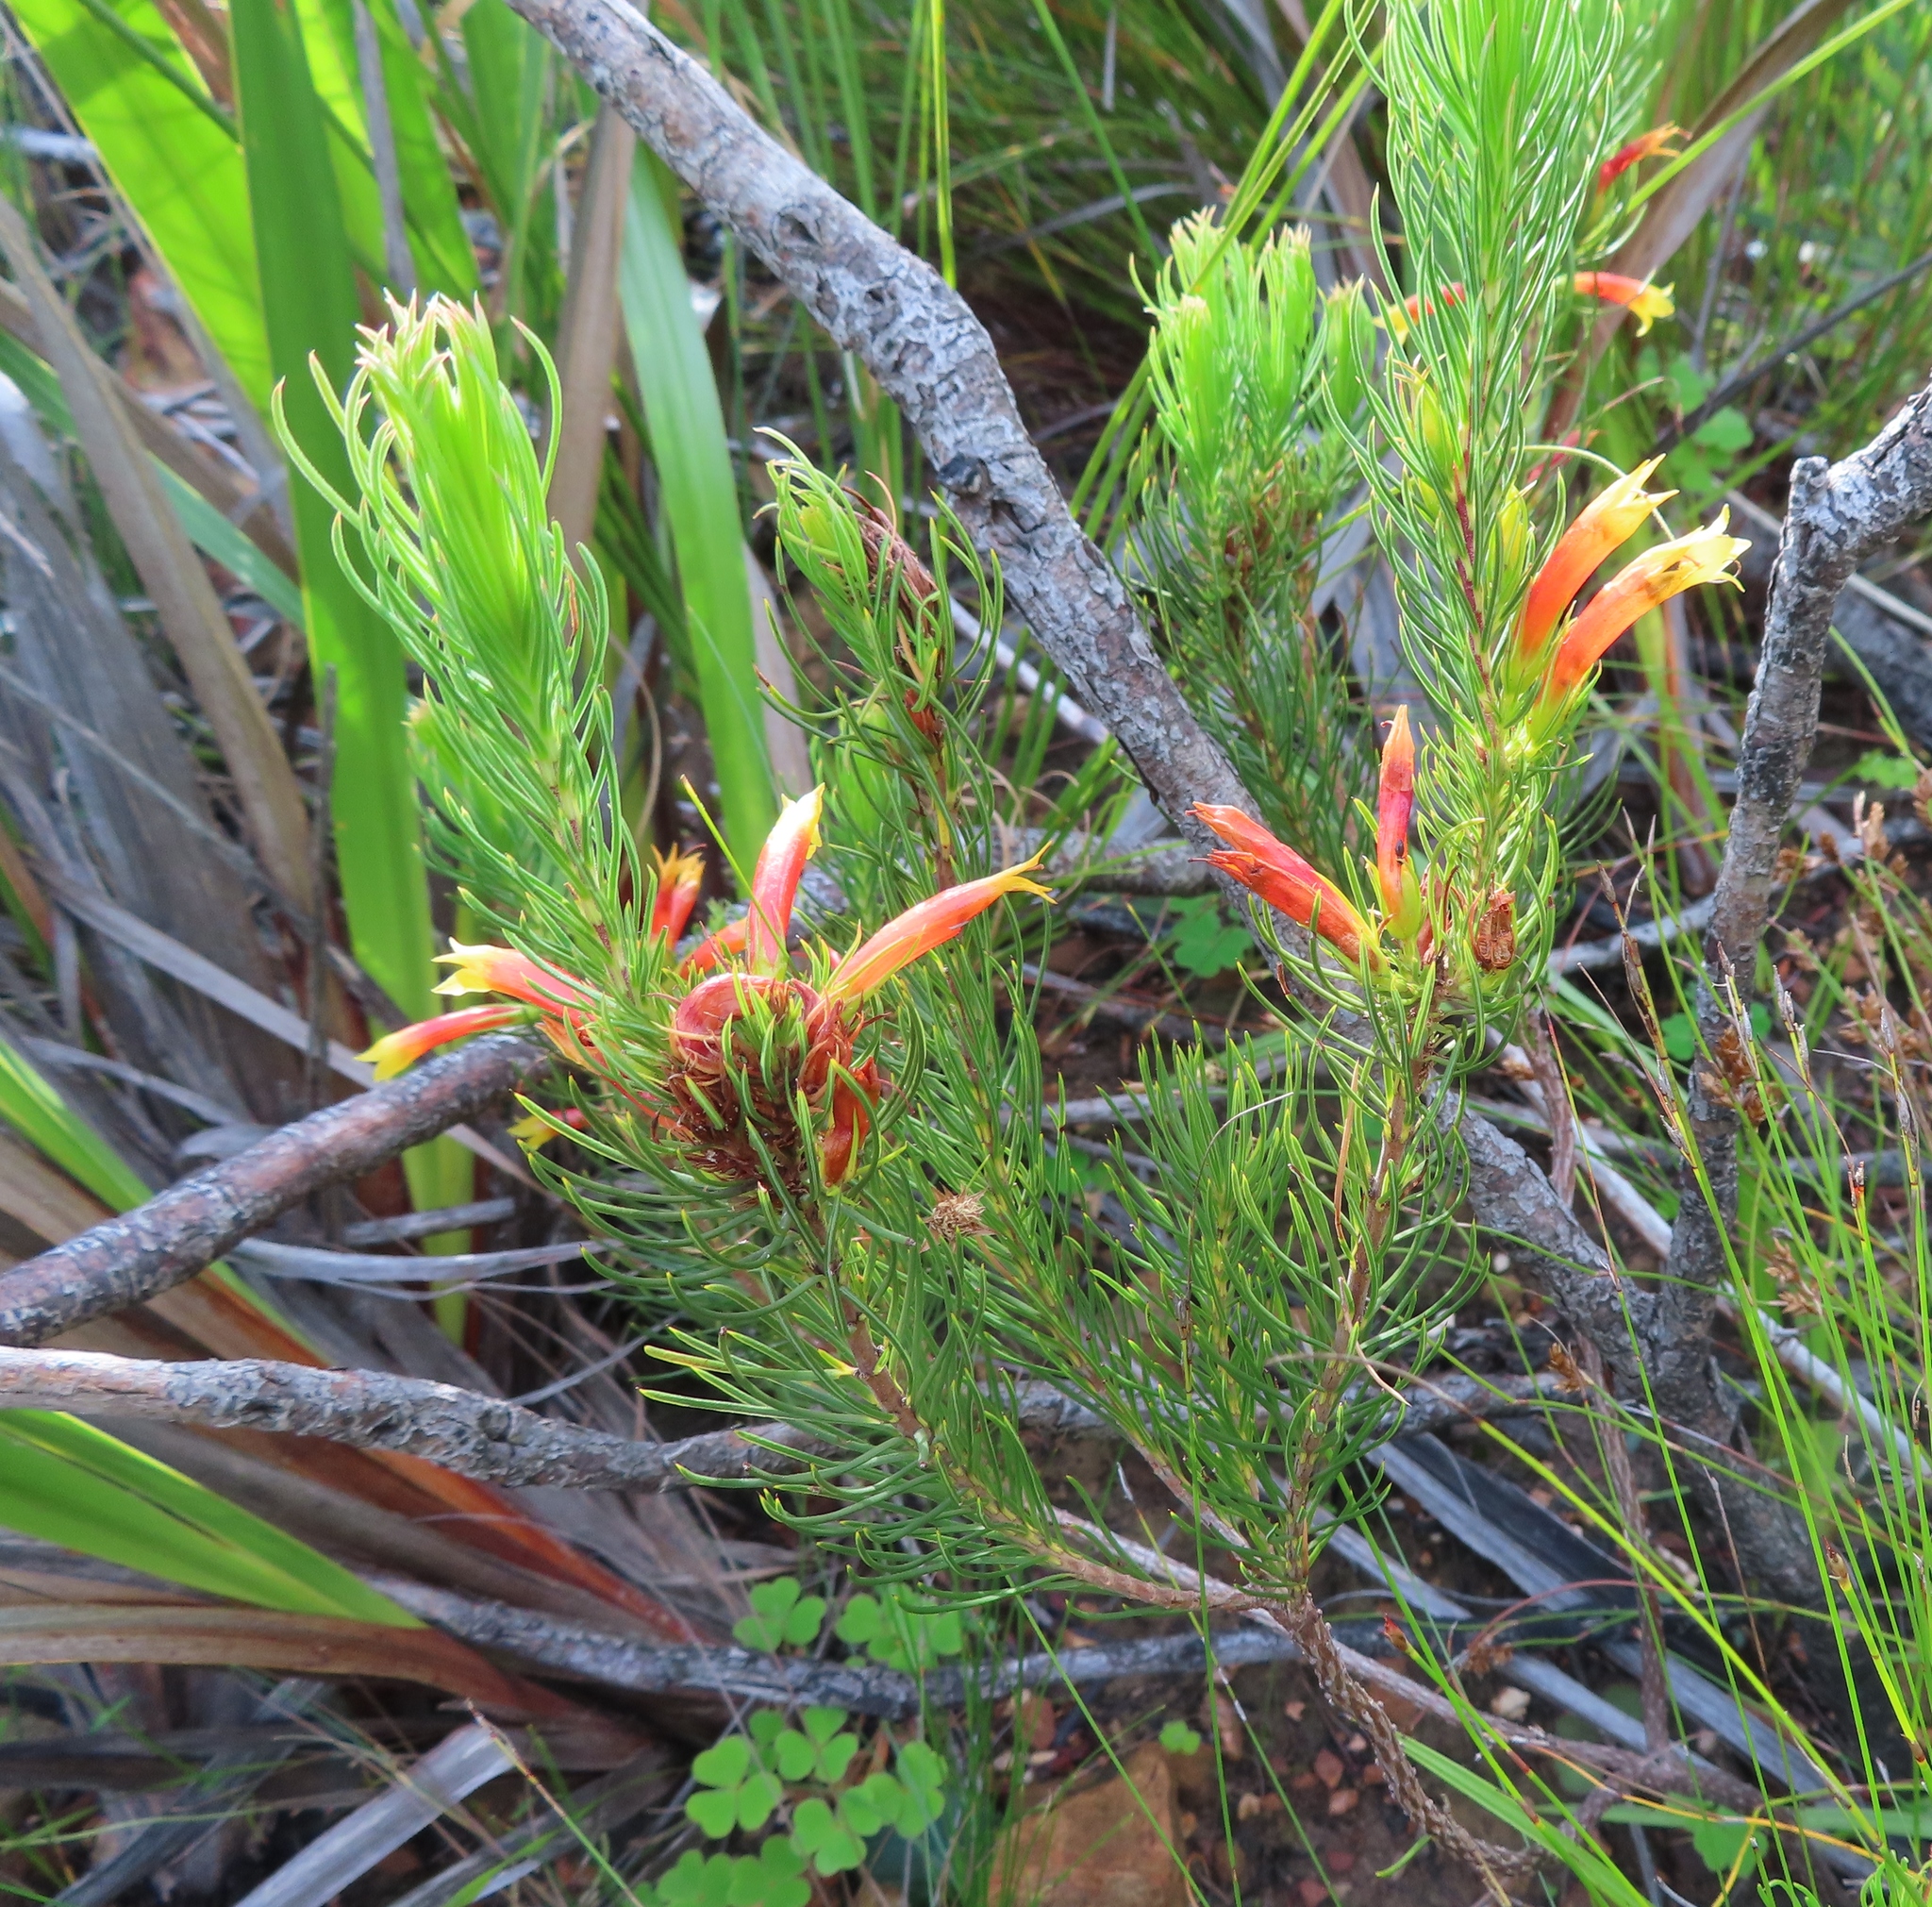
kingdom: Plantae
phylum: Tracheophyta
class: Magnoliopsida
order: Ericales
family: Ericaceae
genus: Erica
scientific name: Erica grandiflora
